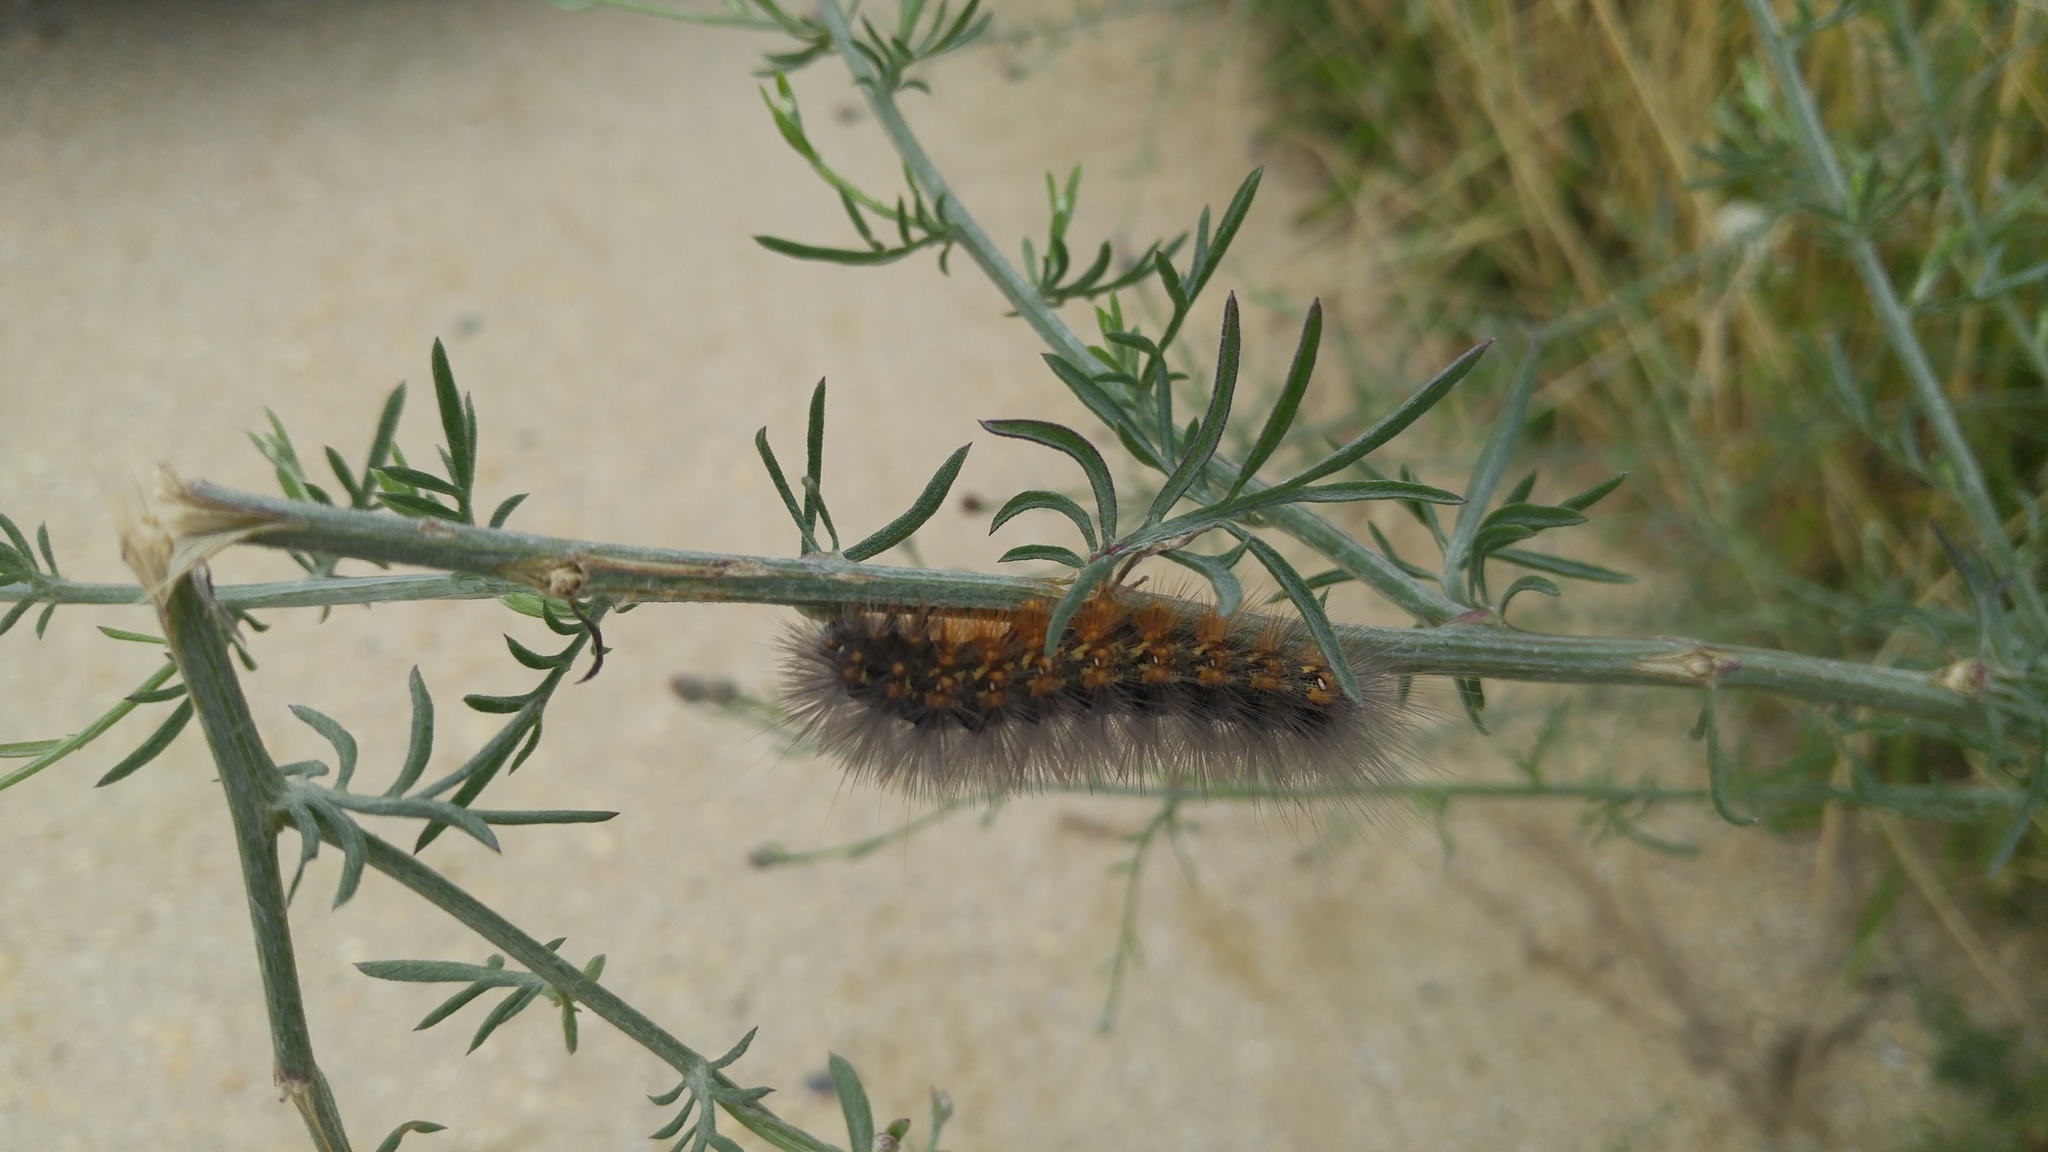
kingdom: Animalia
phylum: Arthropoda
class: Insecta
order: Lepidoptera
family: Erebidae
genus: Estigmene
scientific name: Estigmene acrea
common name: Salt marsh moth
